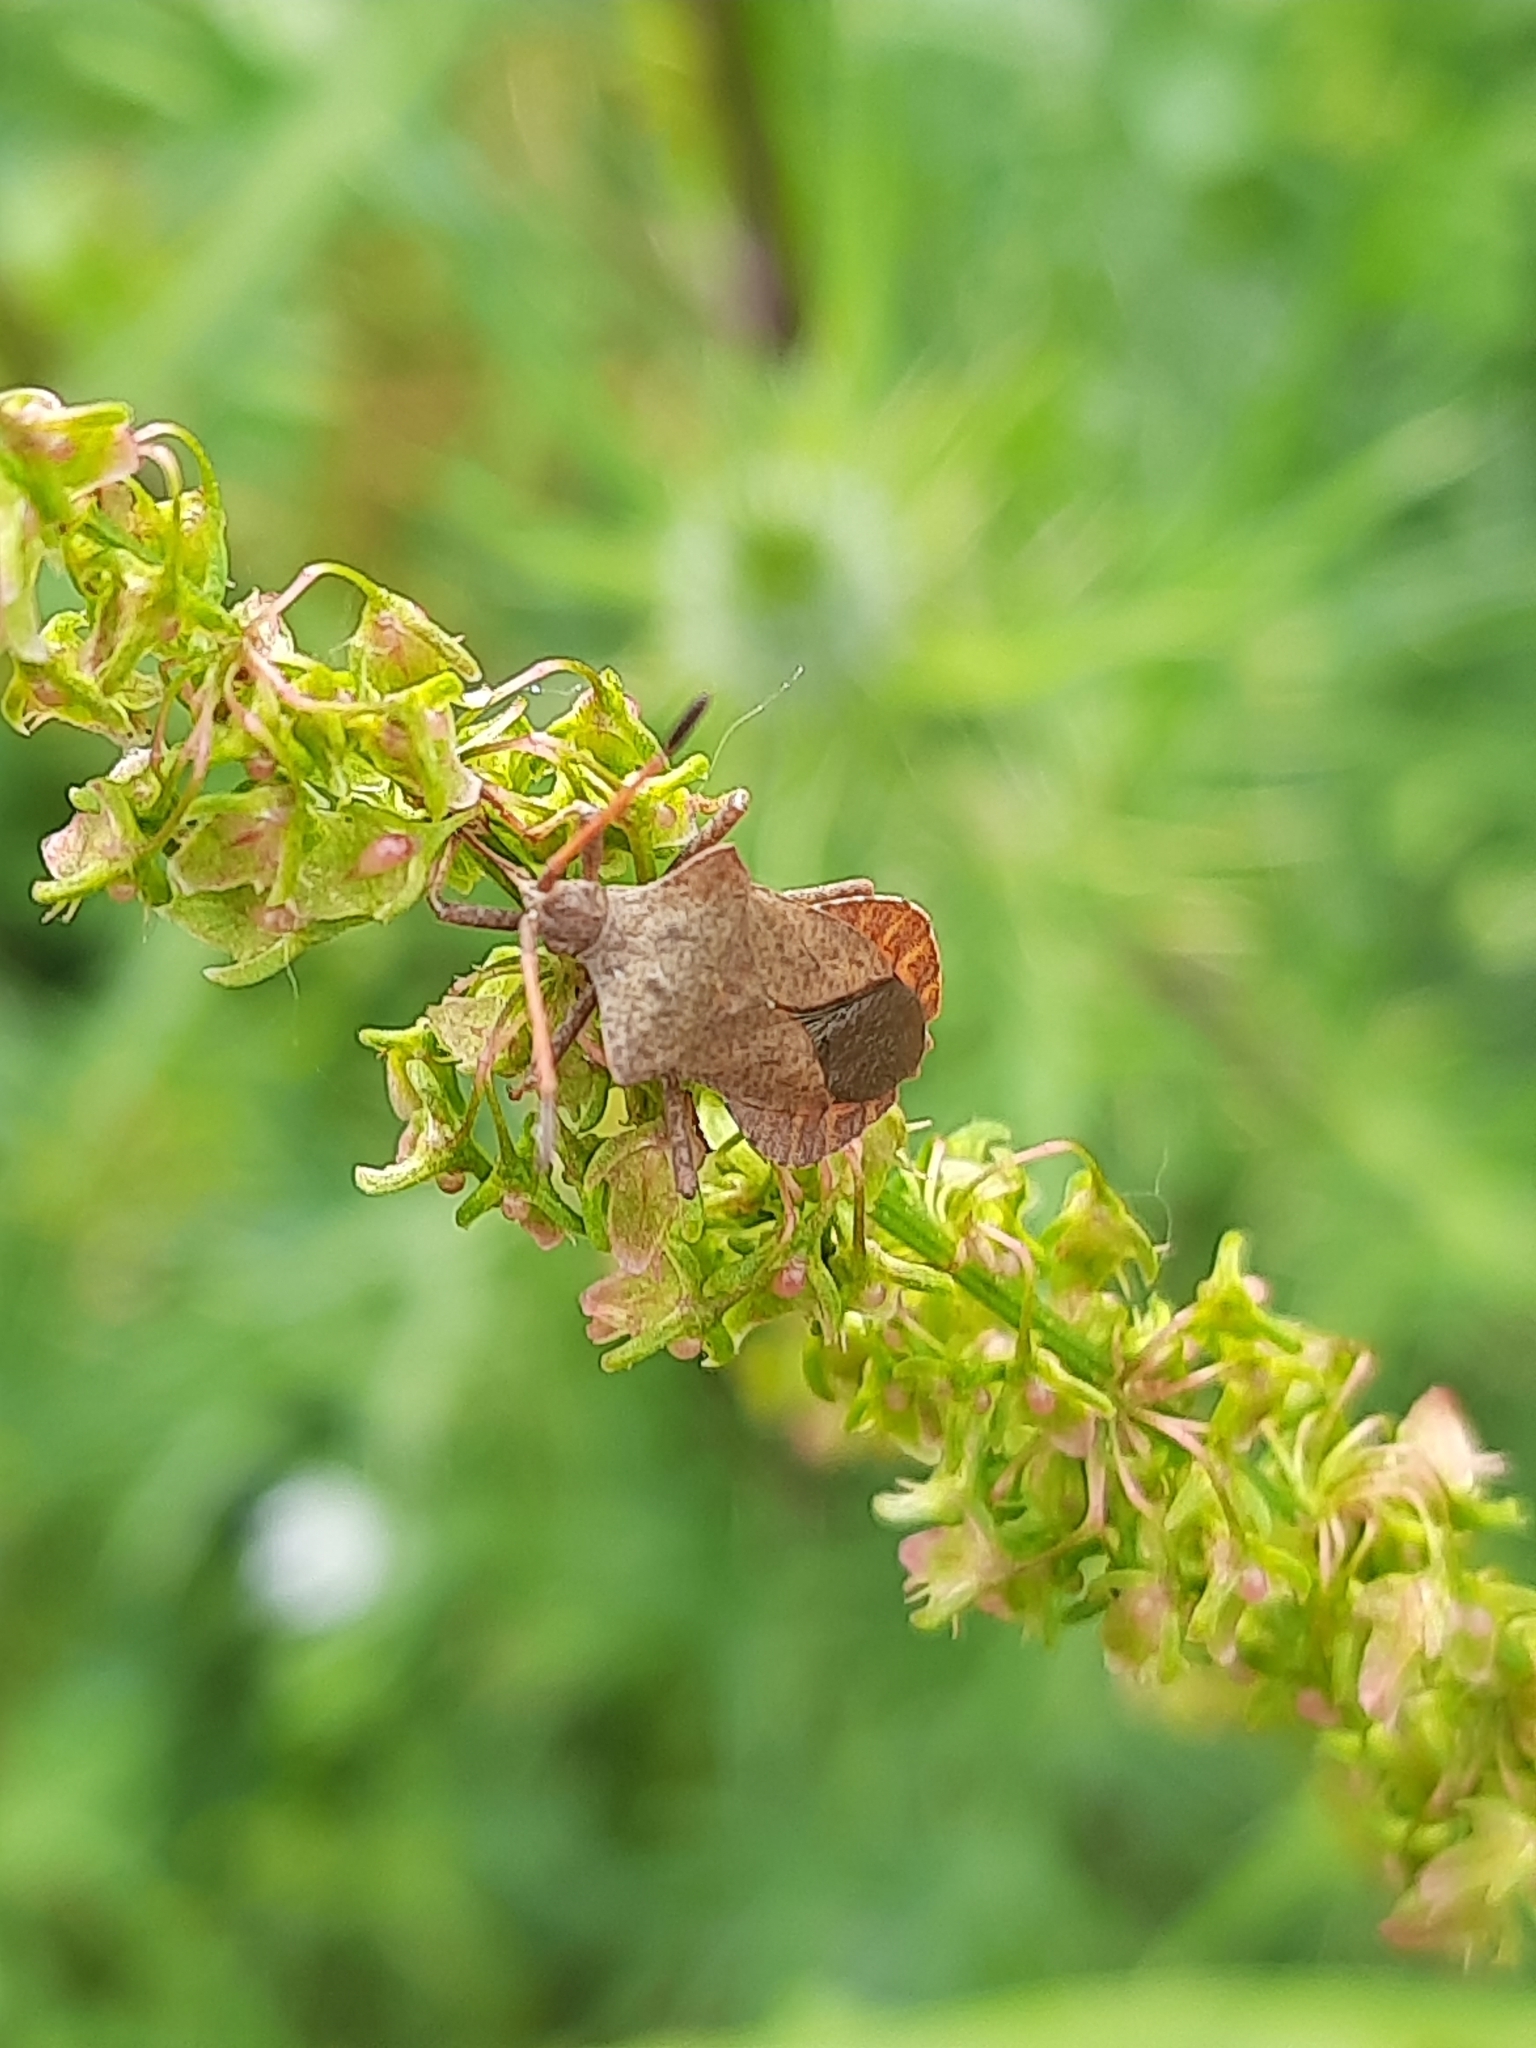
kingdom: Animalia
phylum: Arthropoda
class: Insecta
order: Hemiptera
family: Coreidae
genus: Coreus
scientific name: Coreus marginatus
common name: Dock bug
